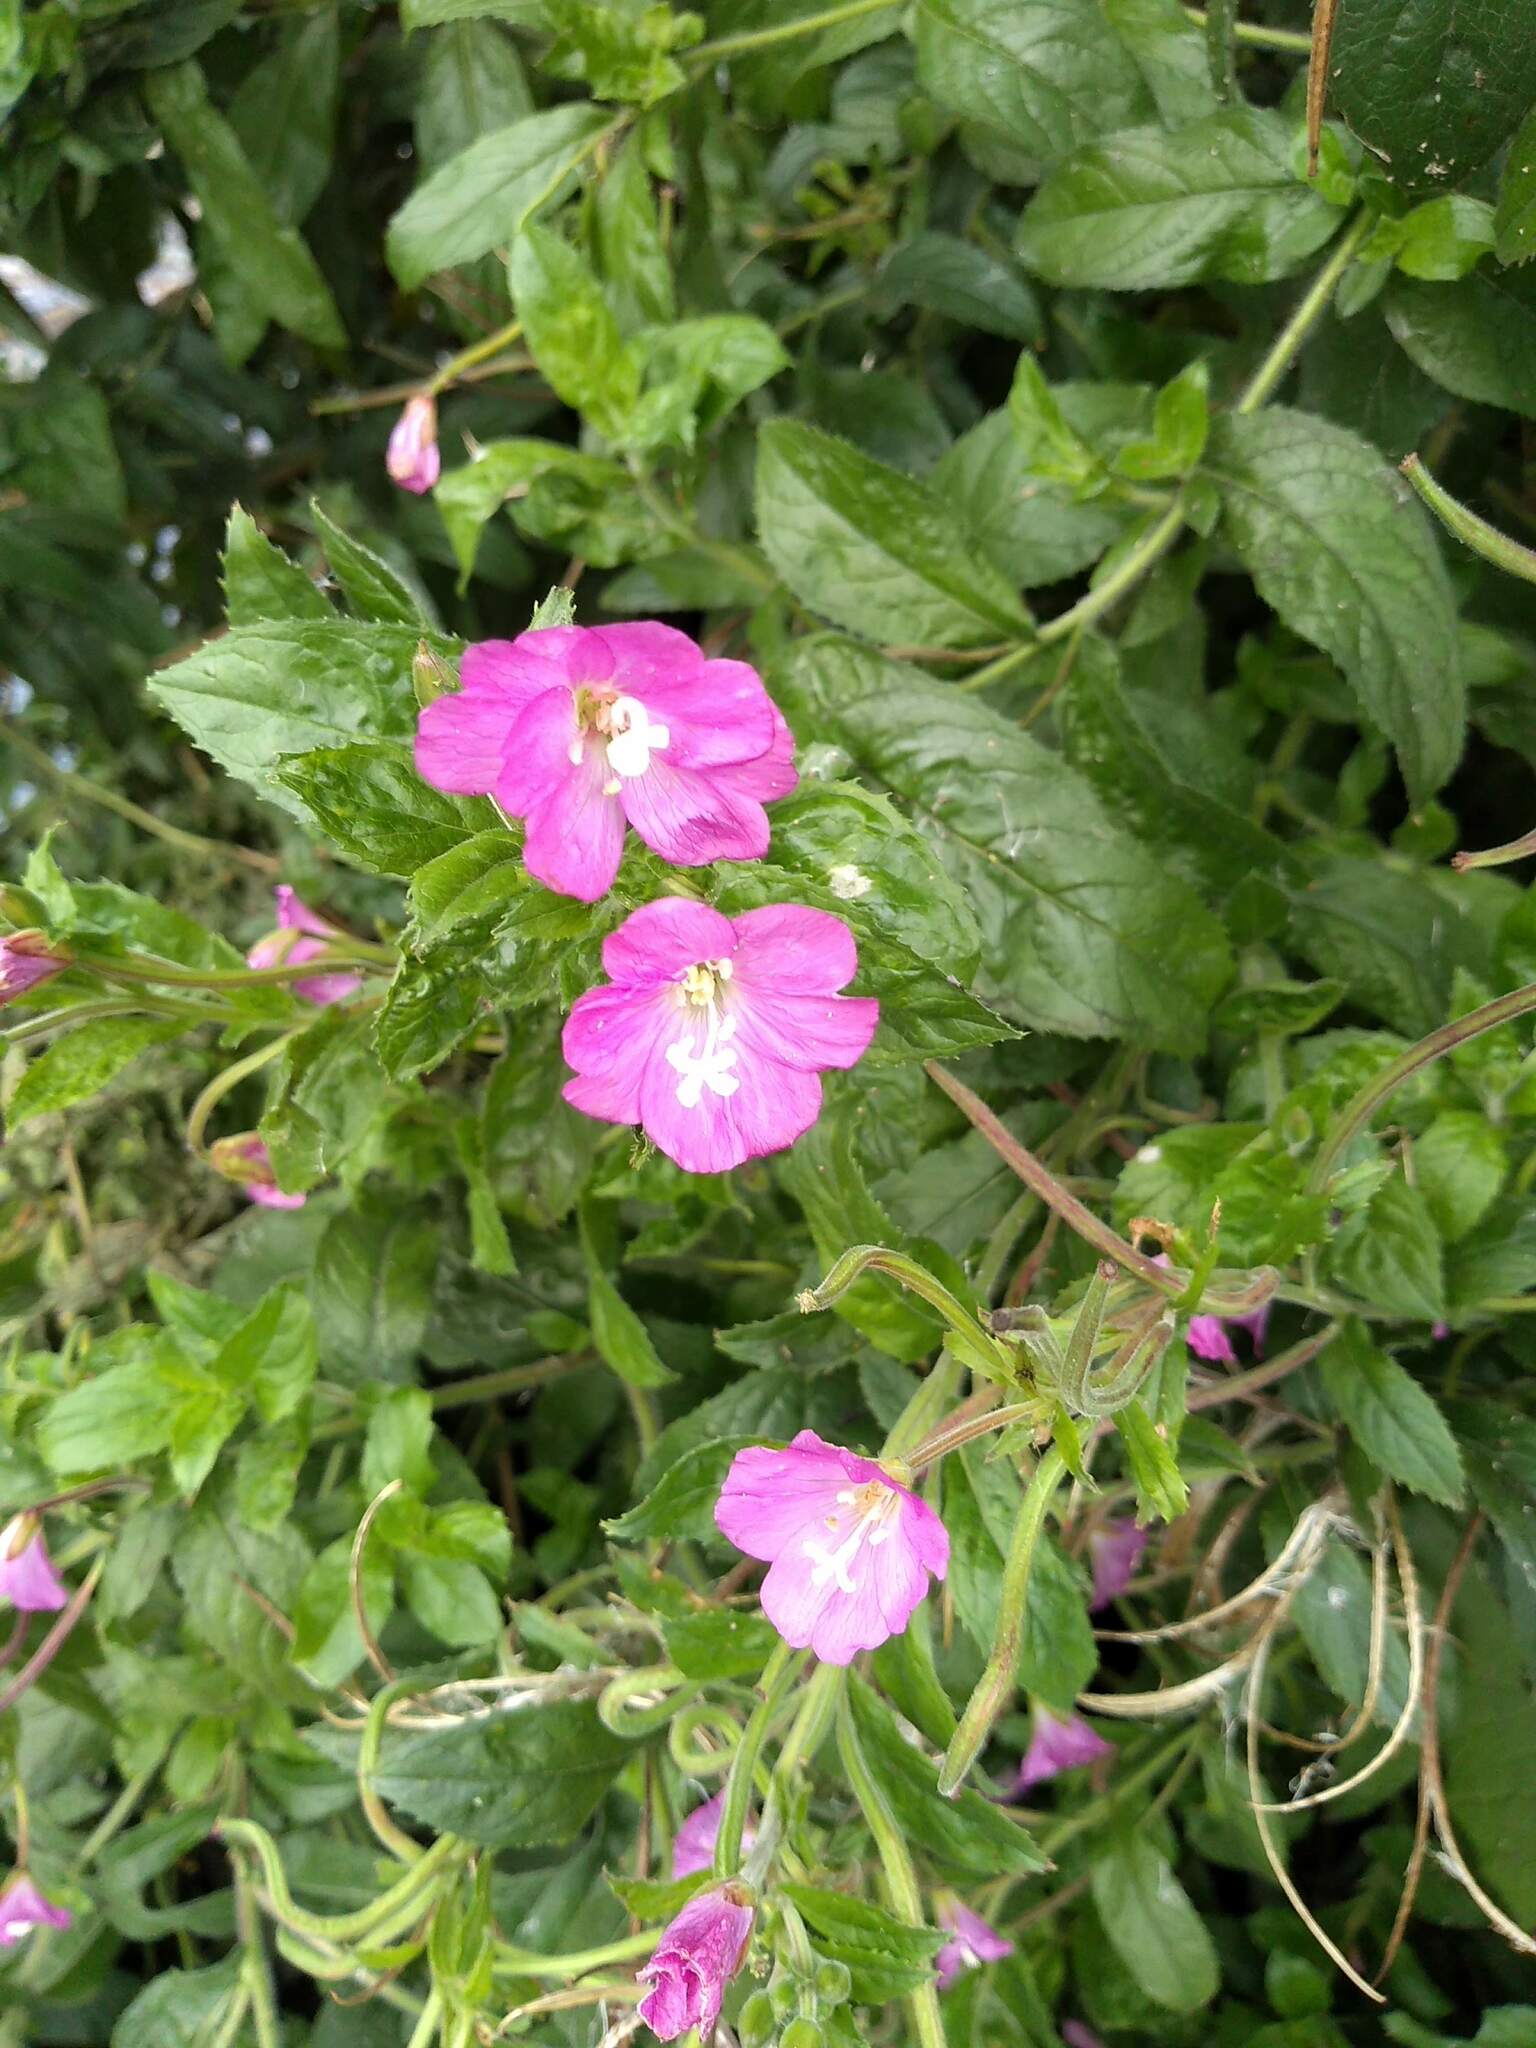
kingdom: Plantae
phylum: Tracheophyta
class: Magnoliopsida
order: Myrtales
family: Onagraceae
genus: Epilobium
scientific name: Epilobium hirsutum
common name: Great willowherb
